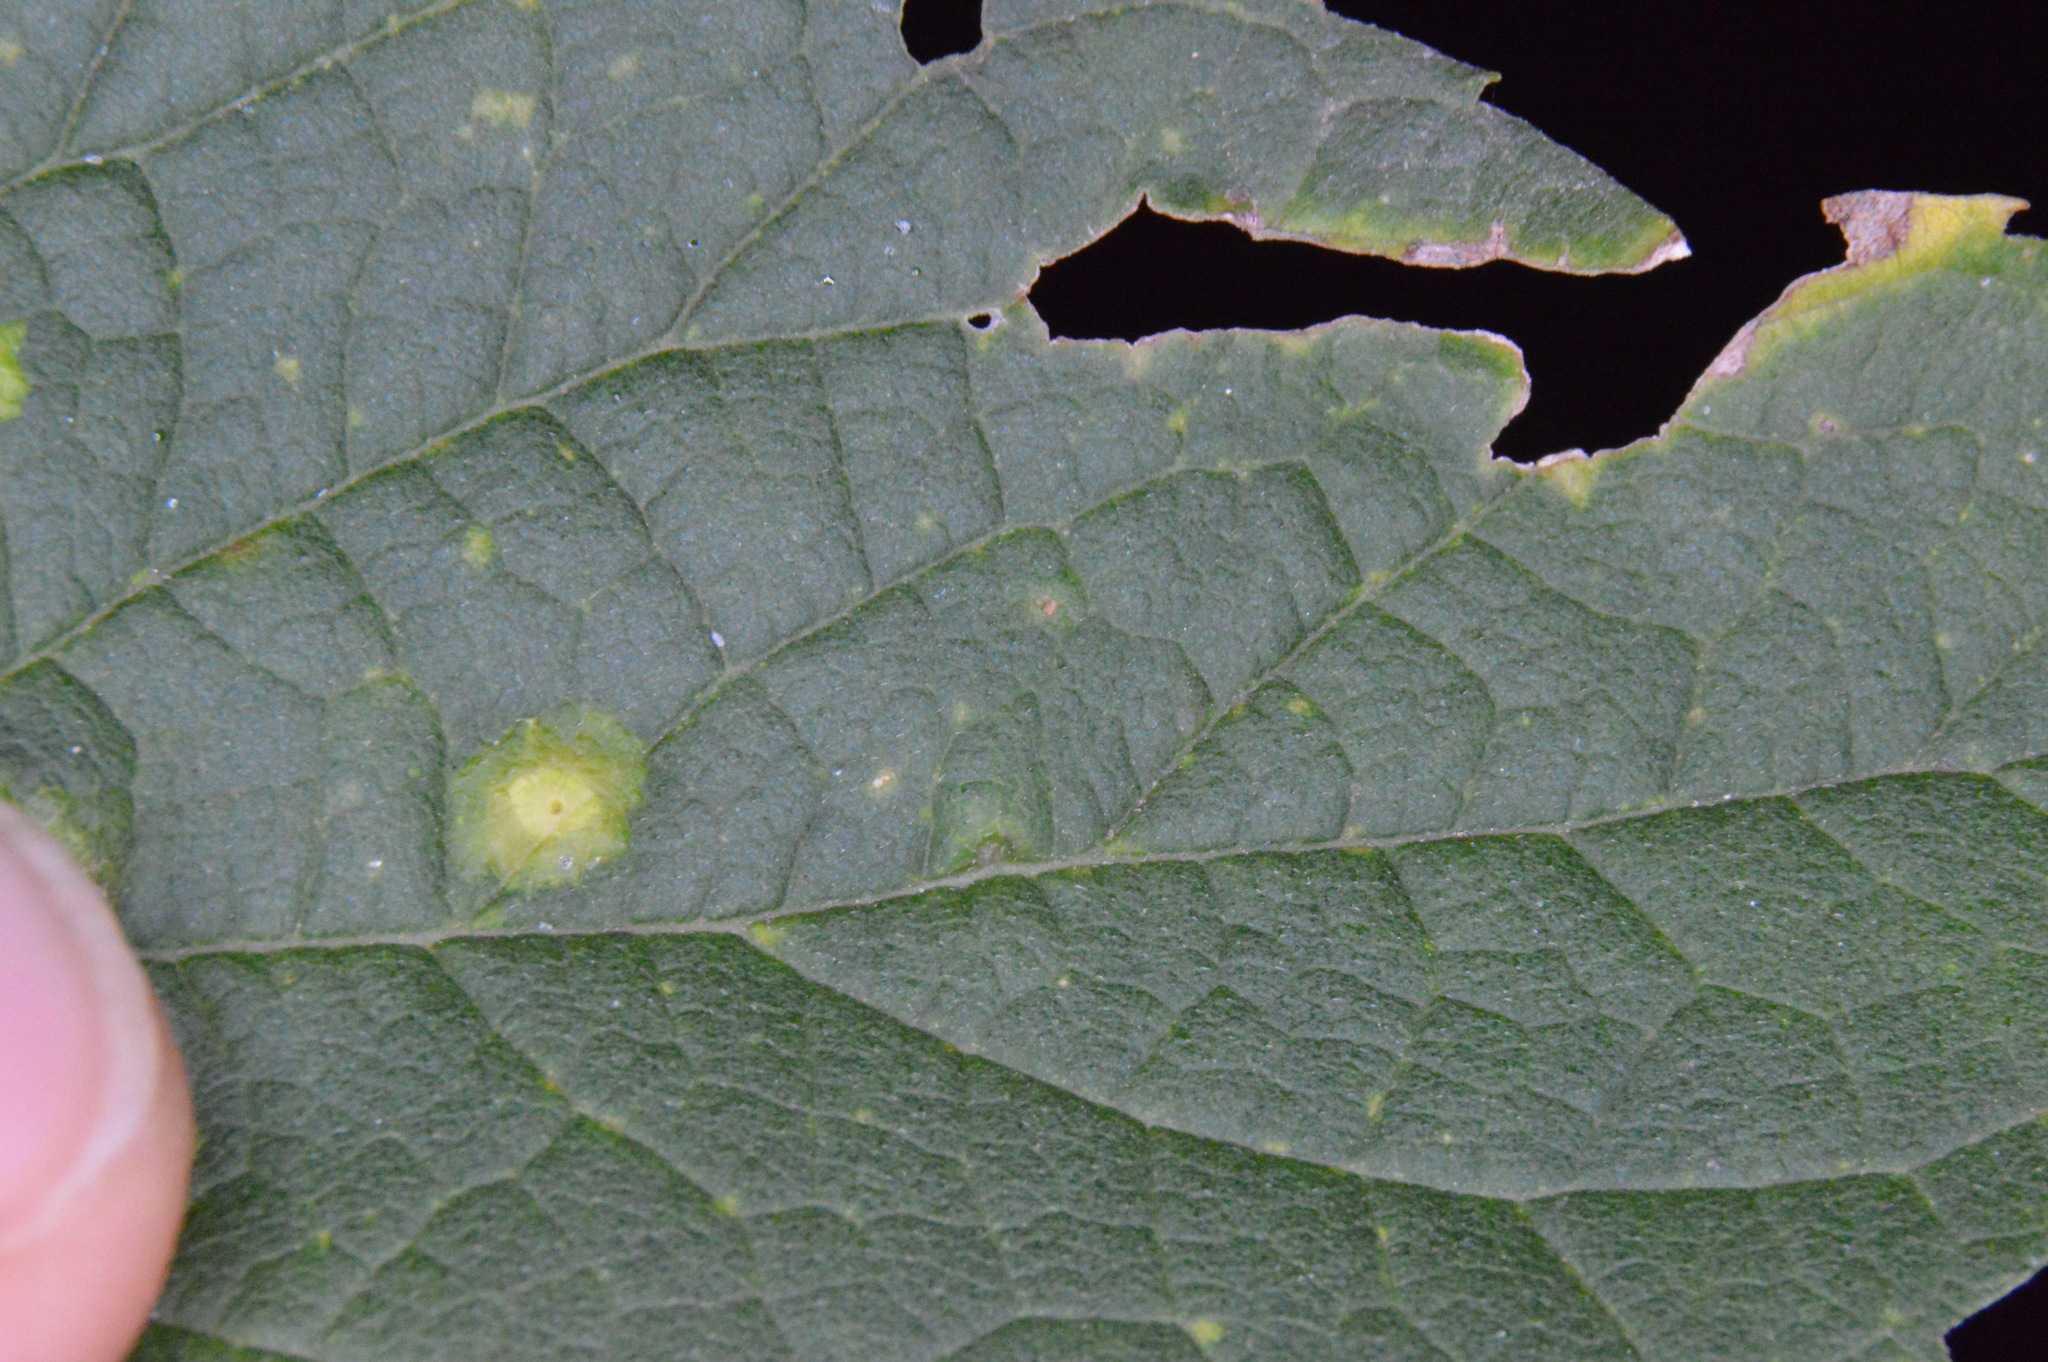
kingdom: Animalia
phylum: Arthropoda
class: Insecta
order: Diptera
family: Cecidomyiidae
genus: Celticecis
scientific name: Celticecis globosa
